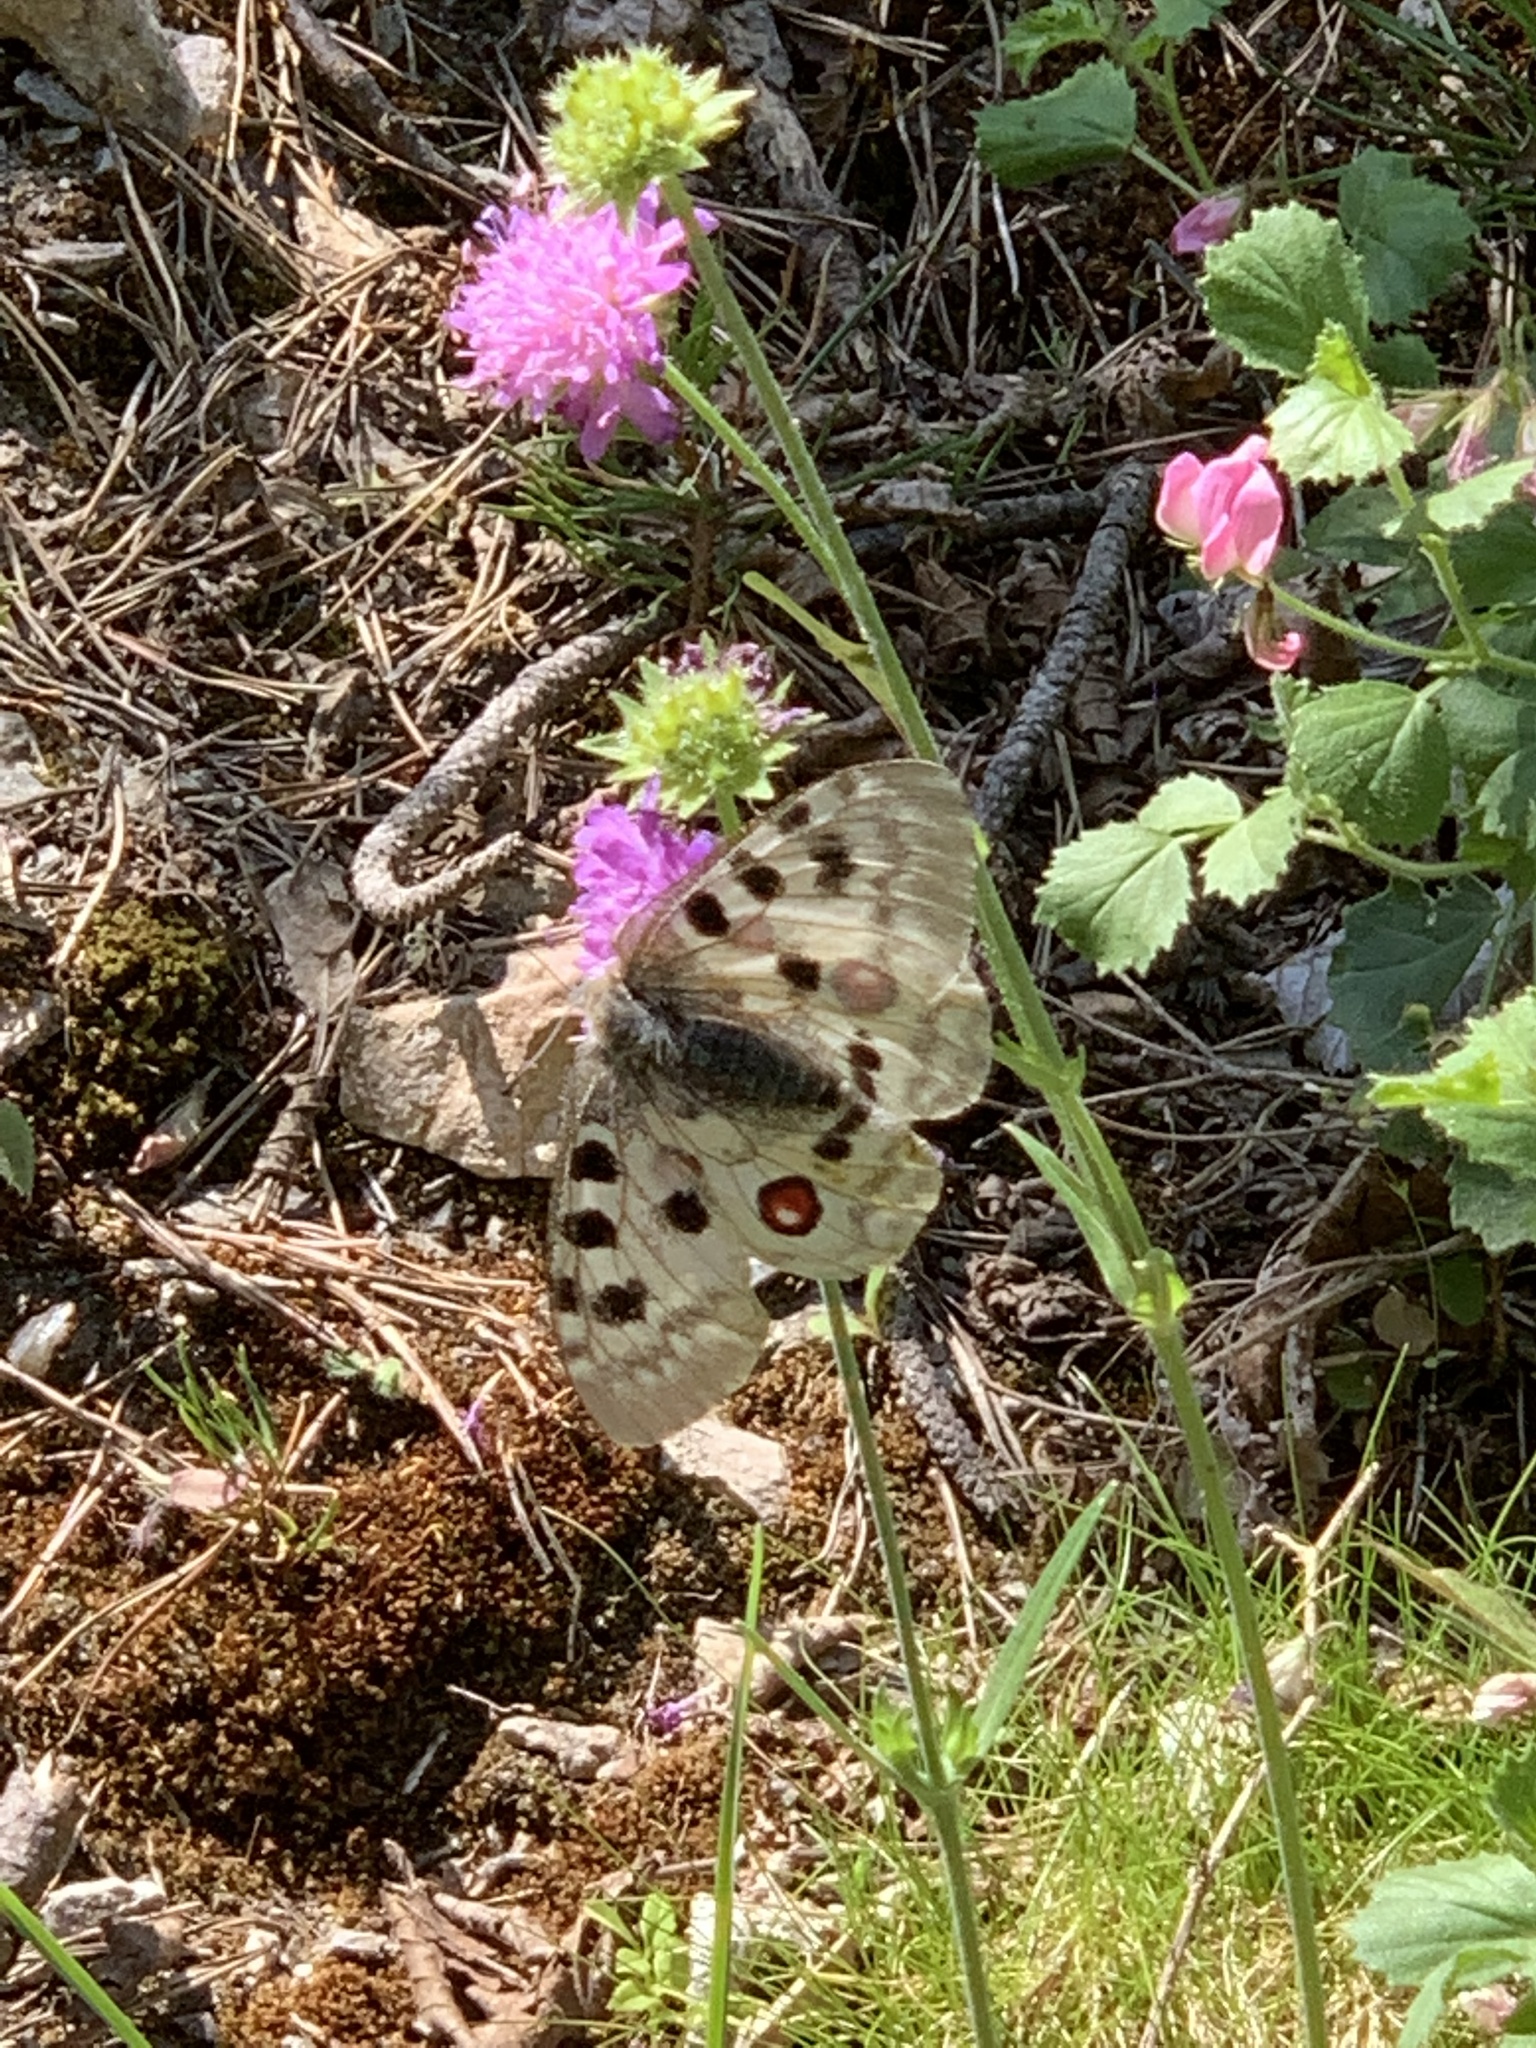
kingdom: Animalia
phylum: Arthropoda
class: Insecta
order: Lepidoptera
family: Papilionidae
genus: Parnassius
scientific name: Parnassius apollo
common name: Apollo
